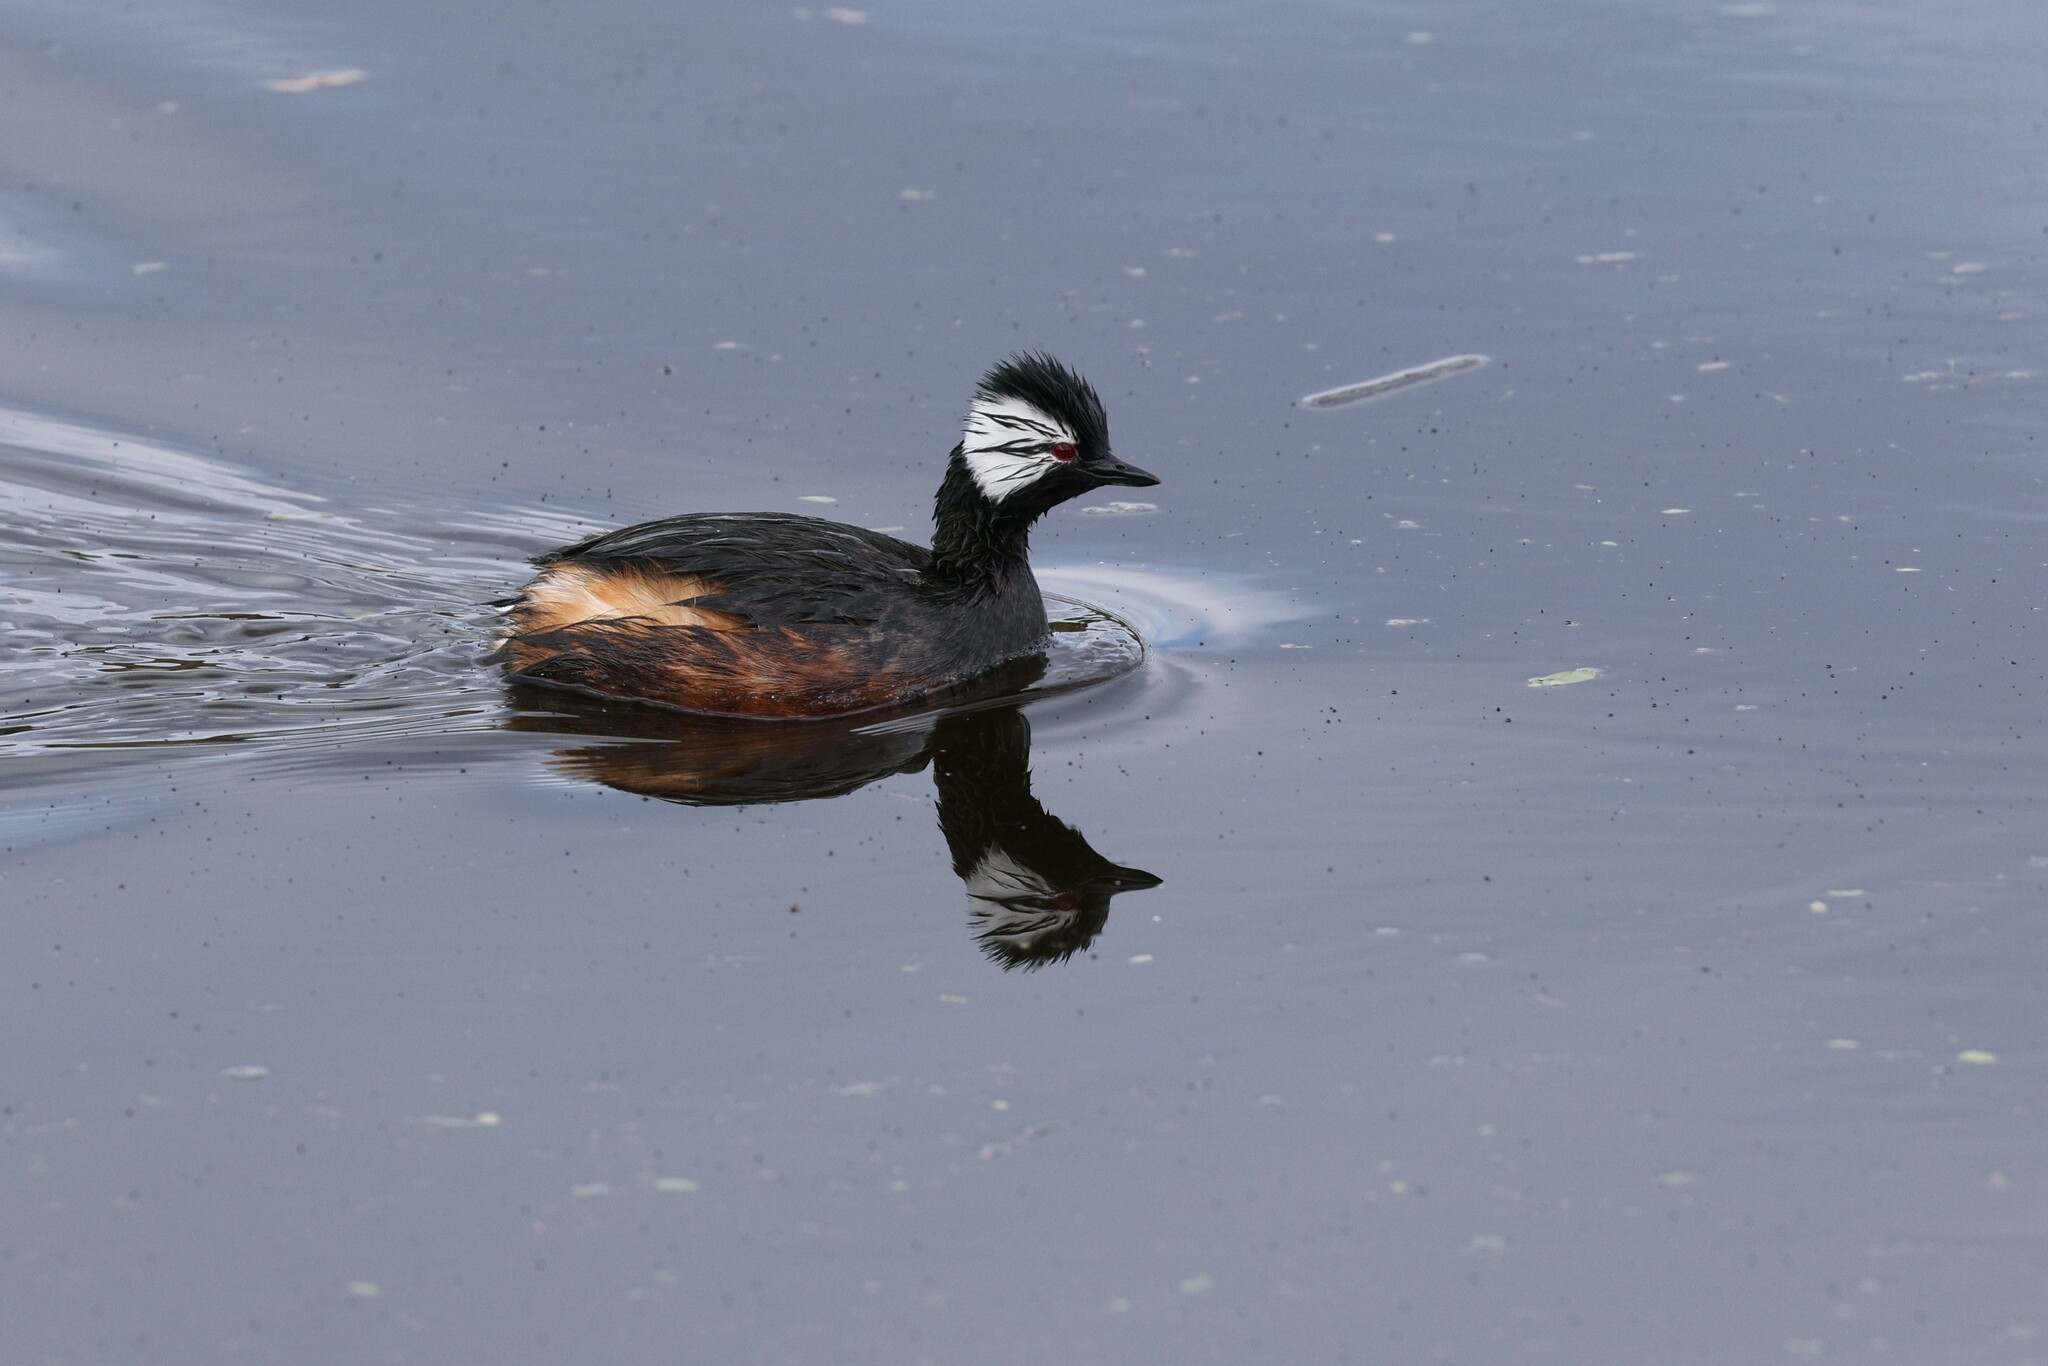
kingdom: Animalia
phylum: Chordata
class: Aves
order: Podicipediformes
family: Podicipedidae
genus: Rollandia
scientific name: Rollandia rolland
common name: White-tufted grebe
